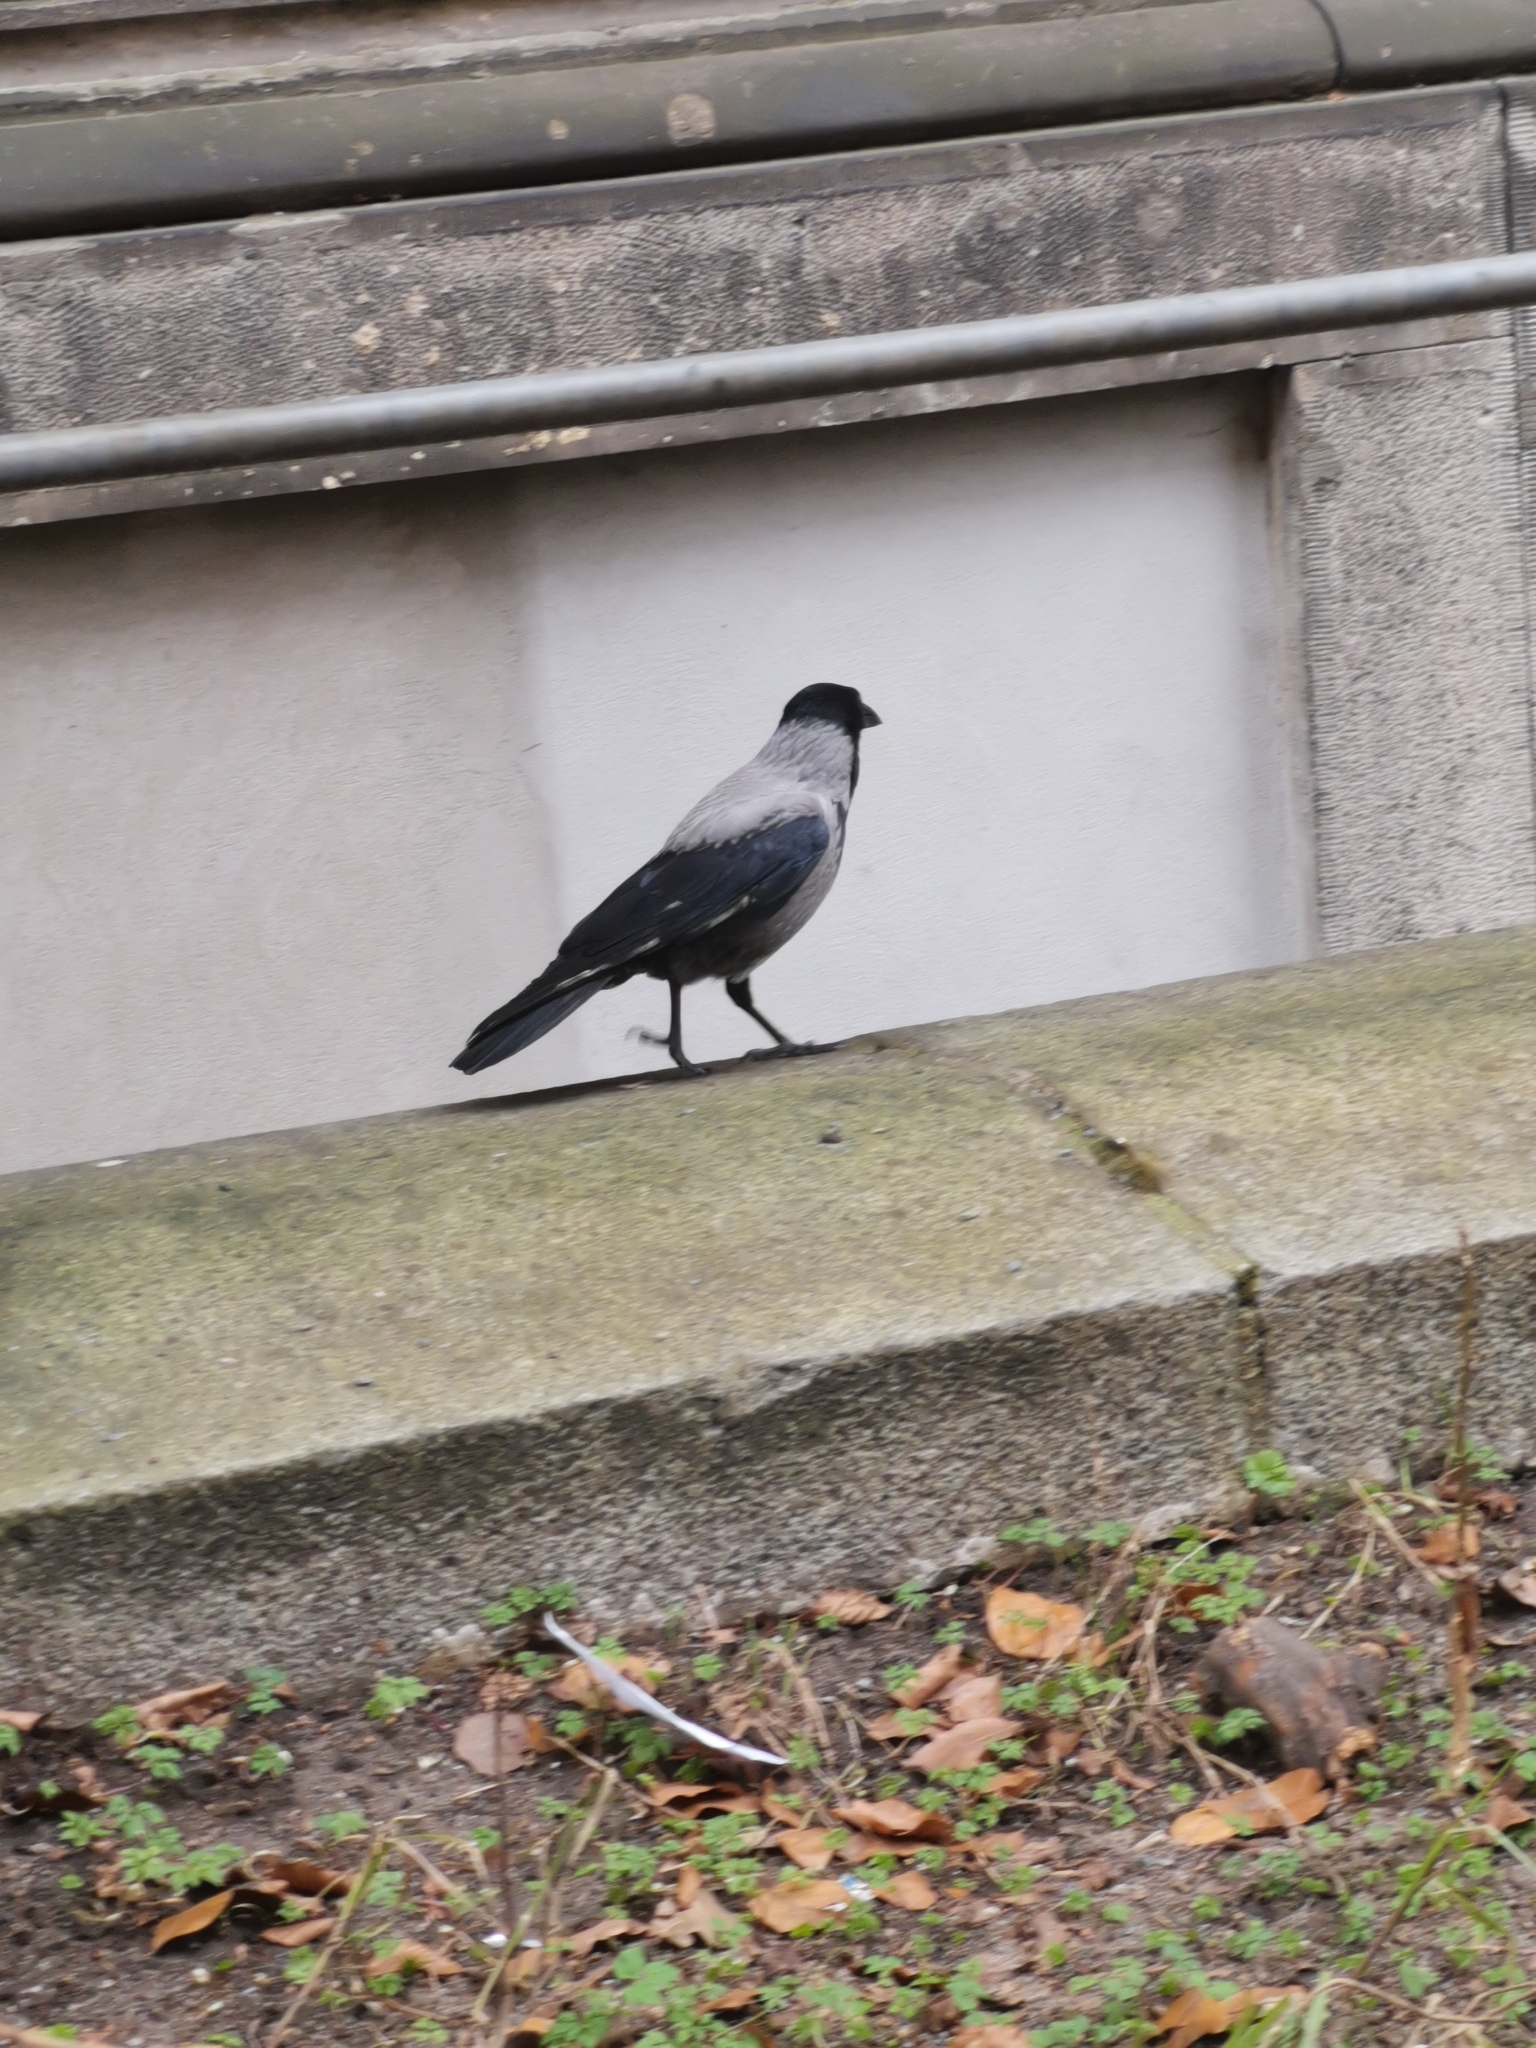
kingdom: Animalia
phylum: Chordata
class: Aves
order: Passeriformes
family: Corvidae
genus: Corvus
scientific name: Corvus cornix
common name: Hooded crow
